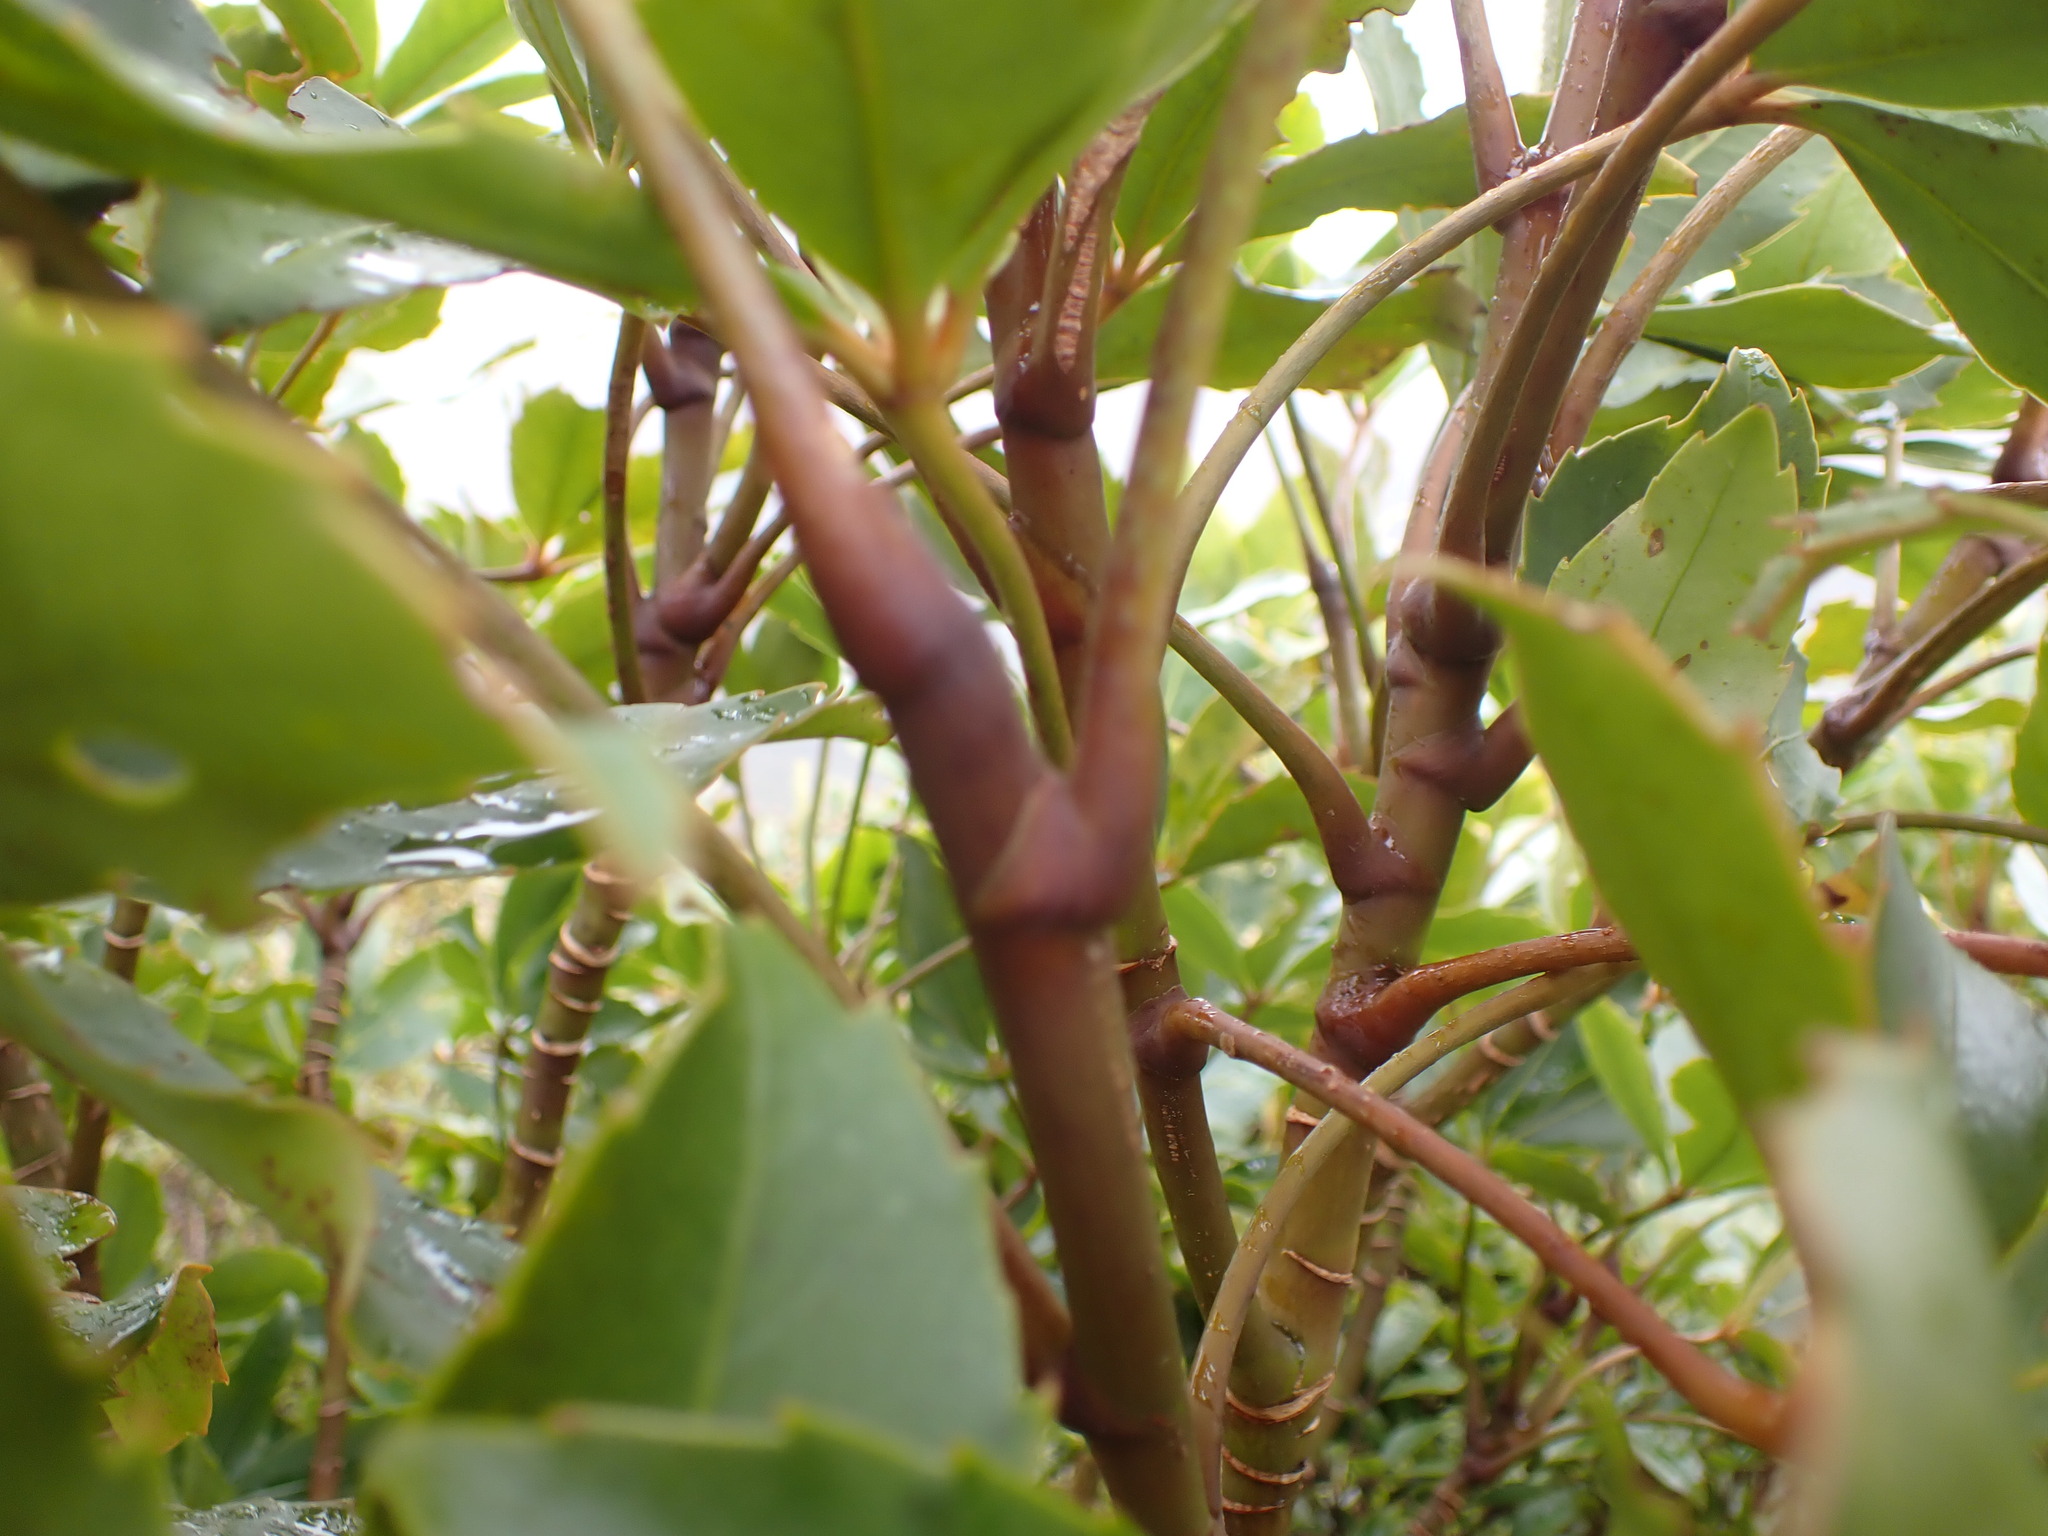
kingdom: Plantae
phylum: Tracheophyta
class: Magnoliopsida
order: Apiales
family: Araliaceae
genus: Neopanax
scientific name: Neopanax colensoi
